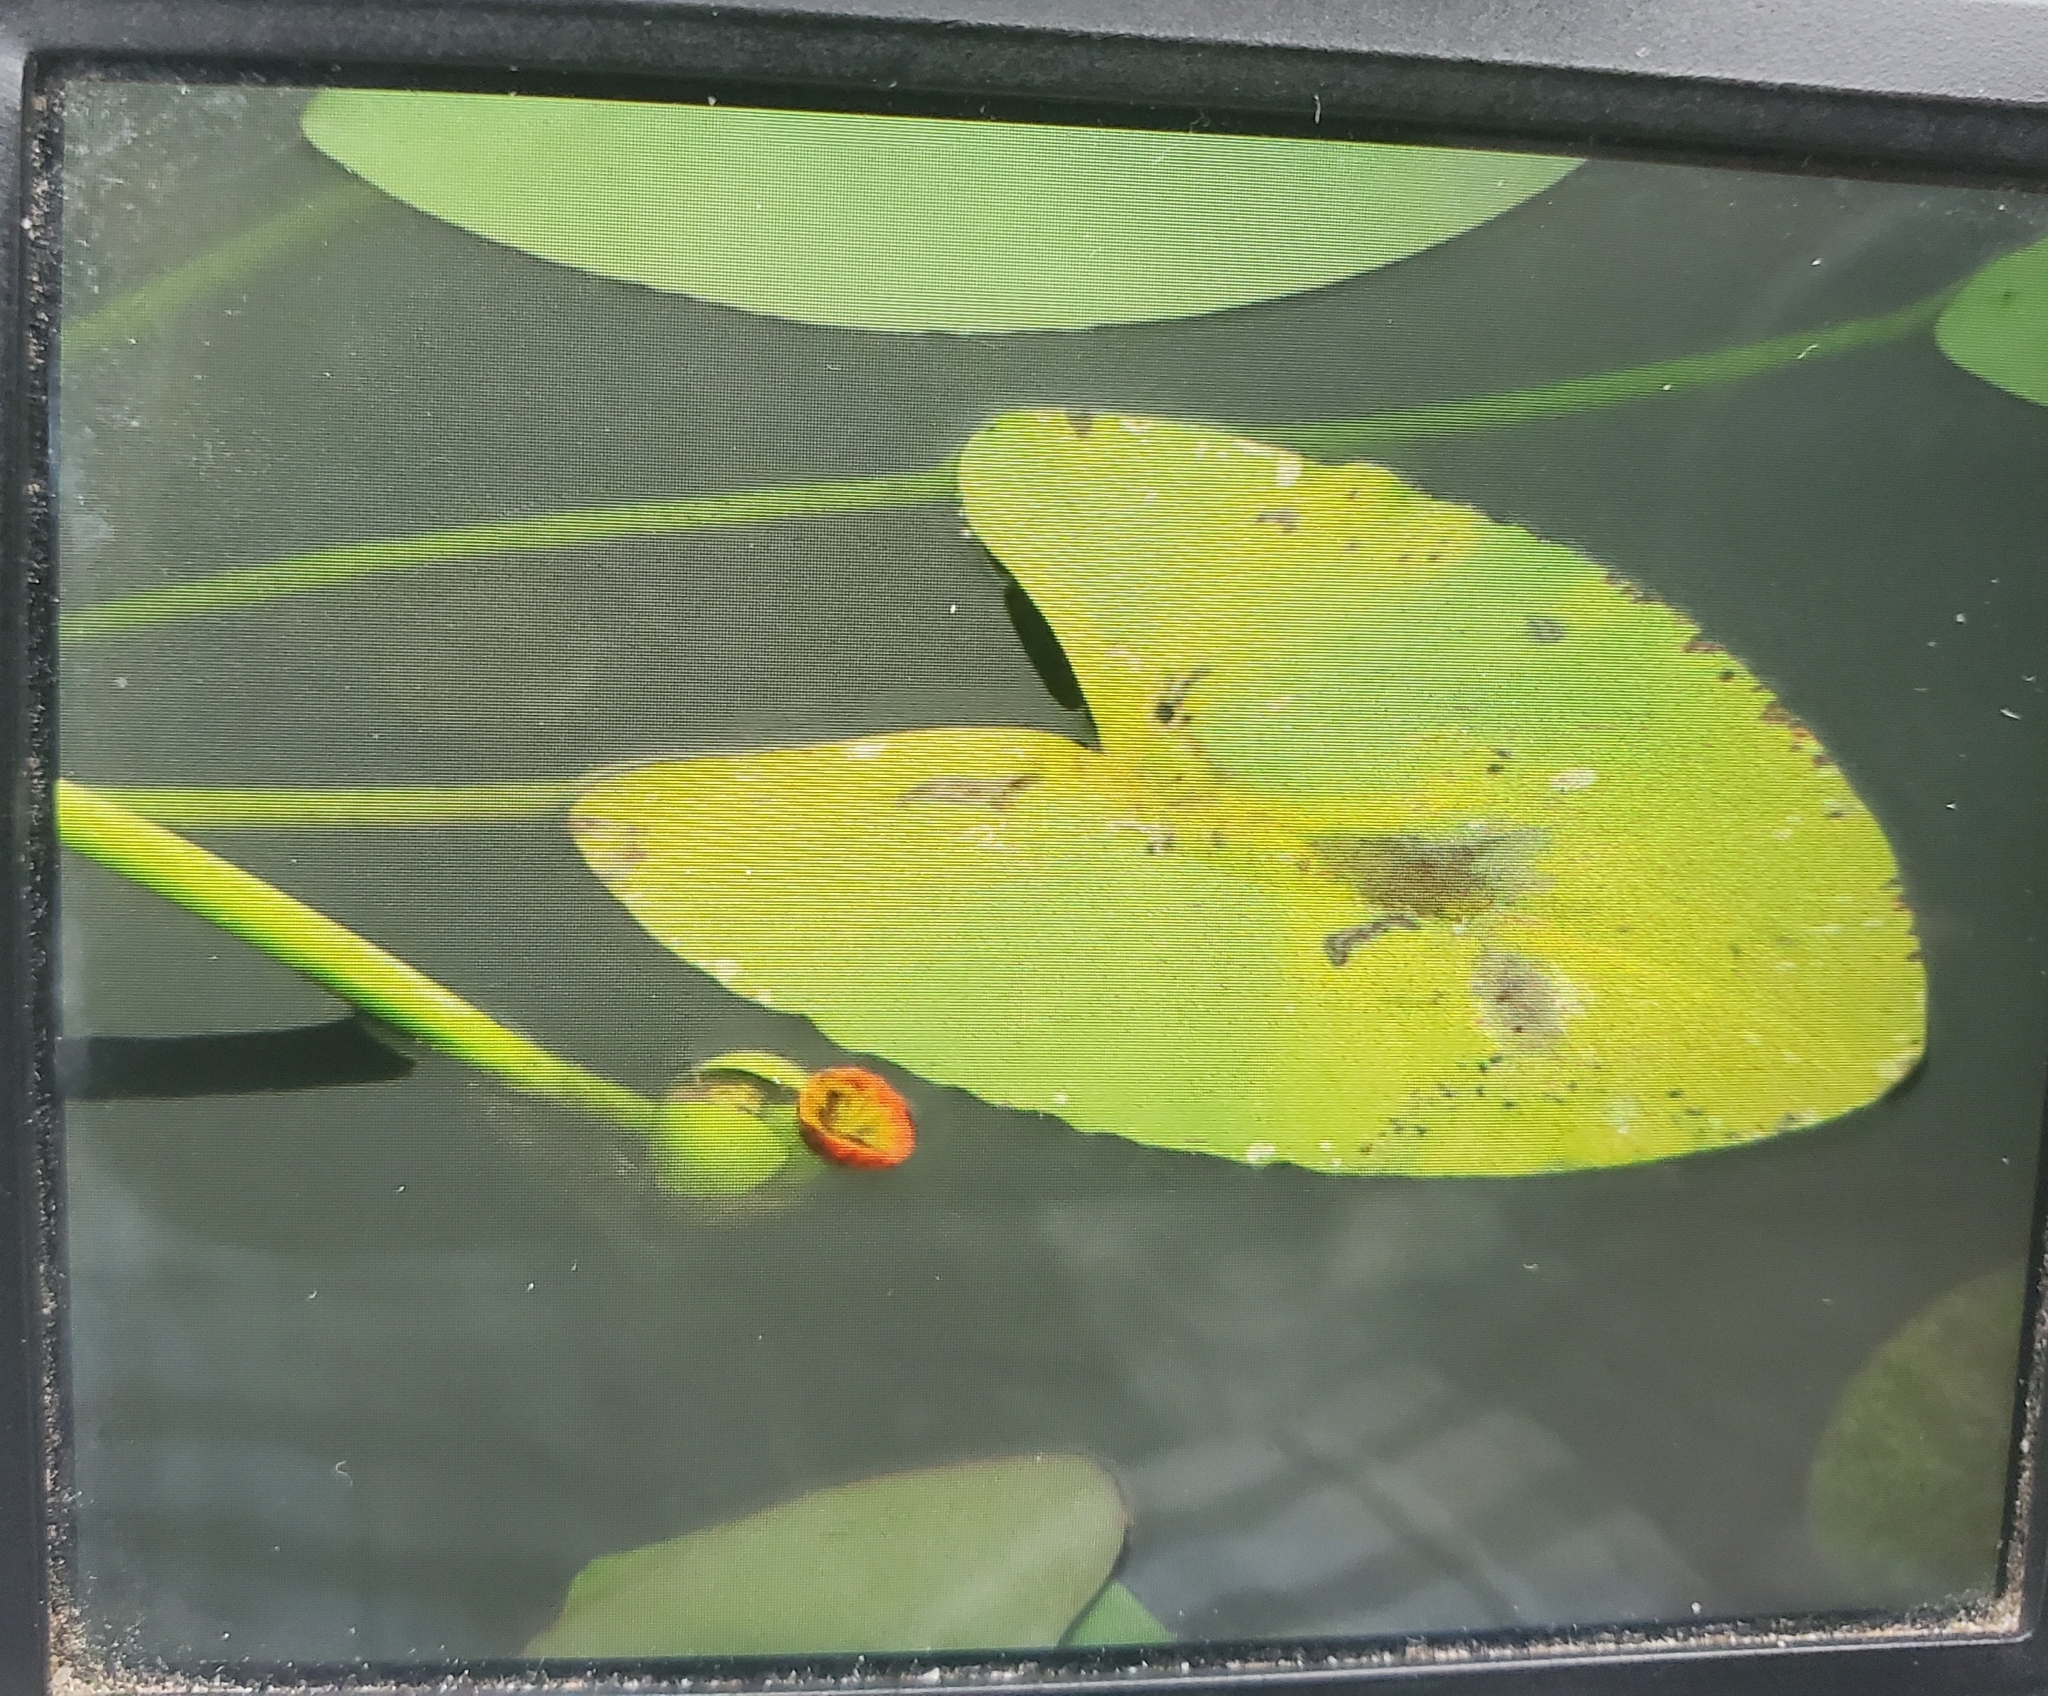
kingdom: Plantae
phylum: Tracheophyta
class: Magnoliopsida
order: Nymphaeales
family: Nymphaeaceae
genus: Nuphar
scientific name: Nuphar advena
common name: Spatter-dock
